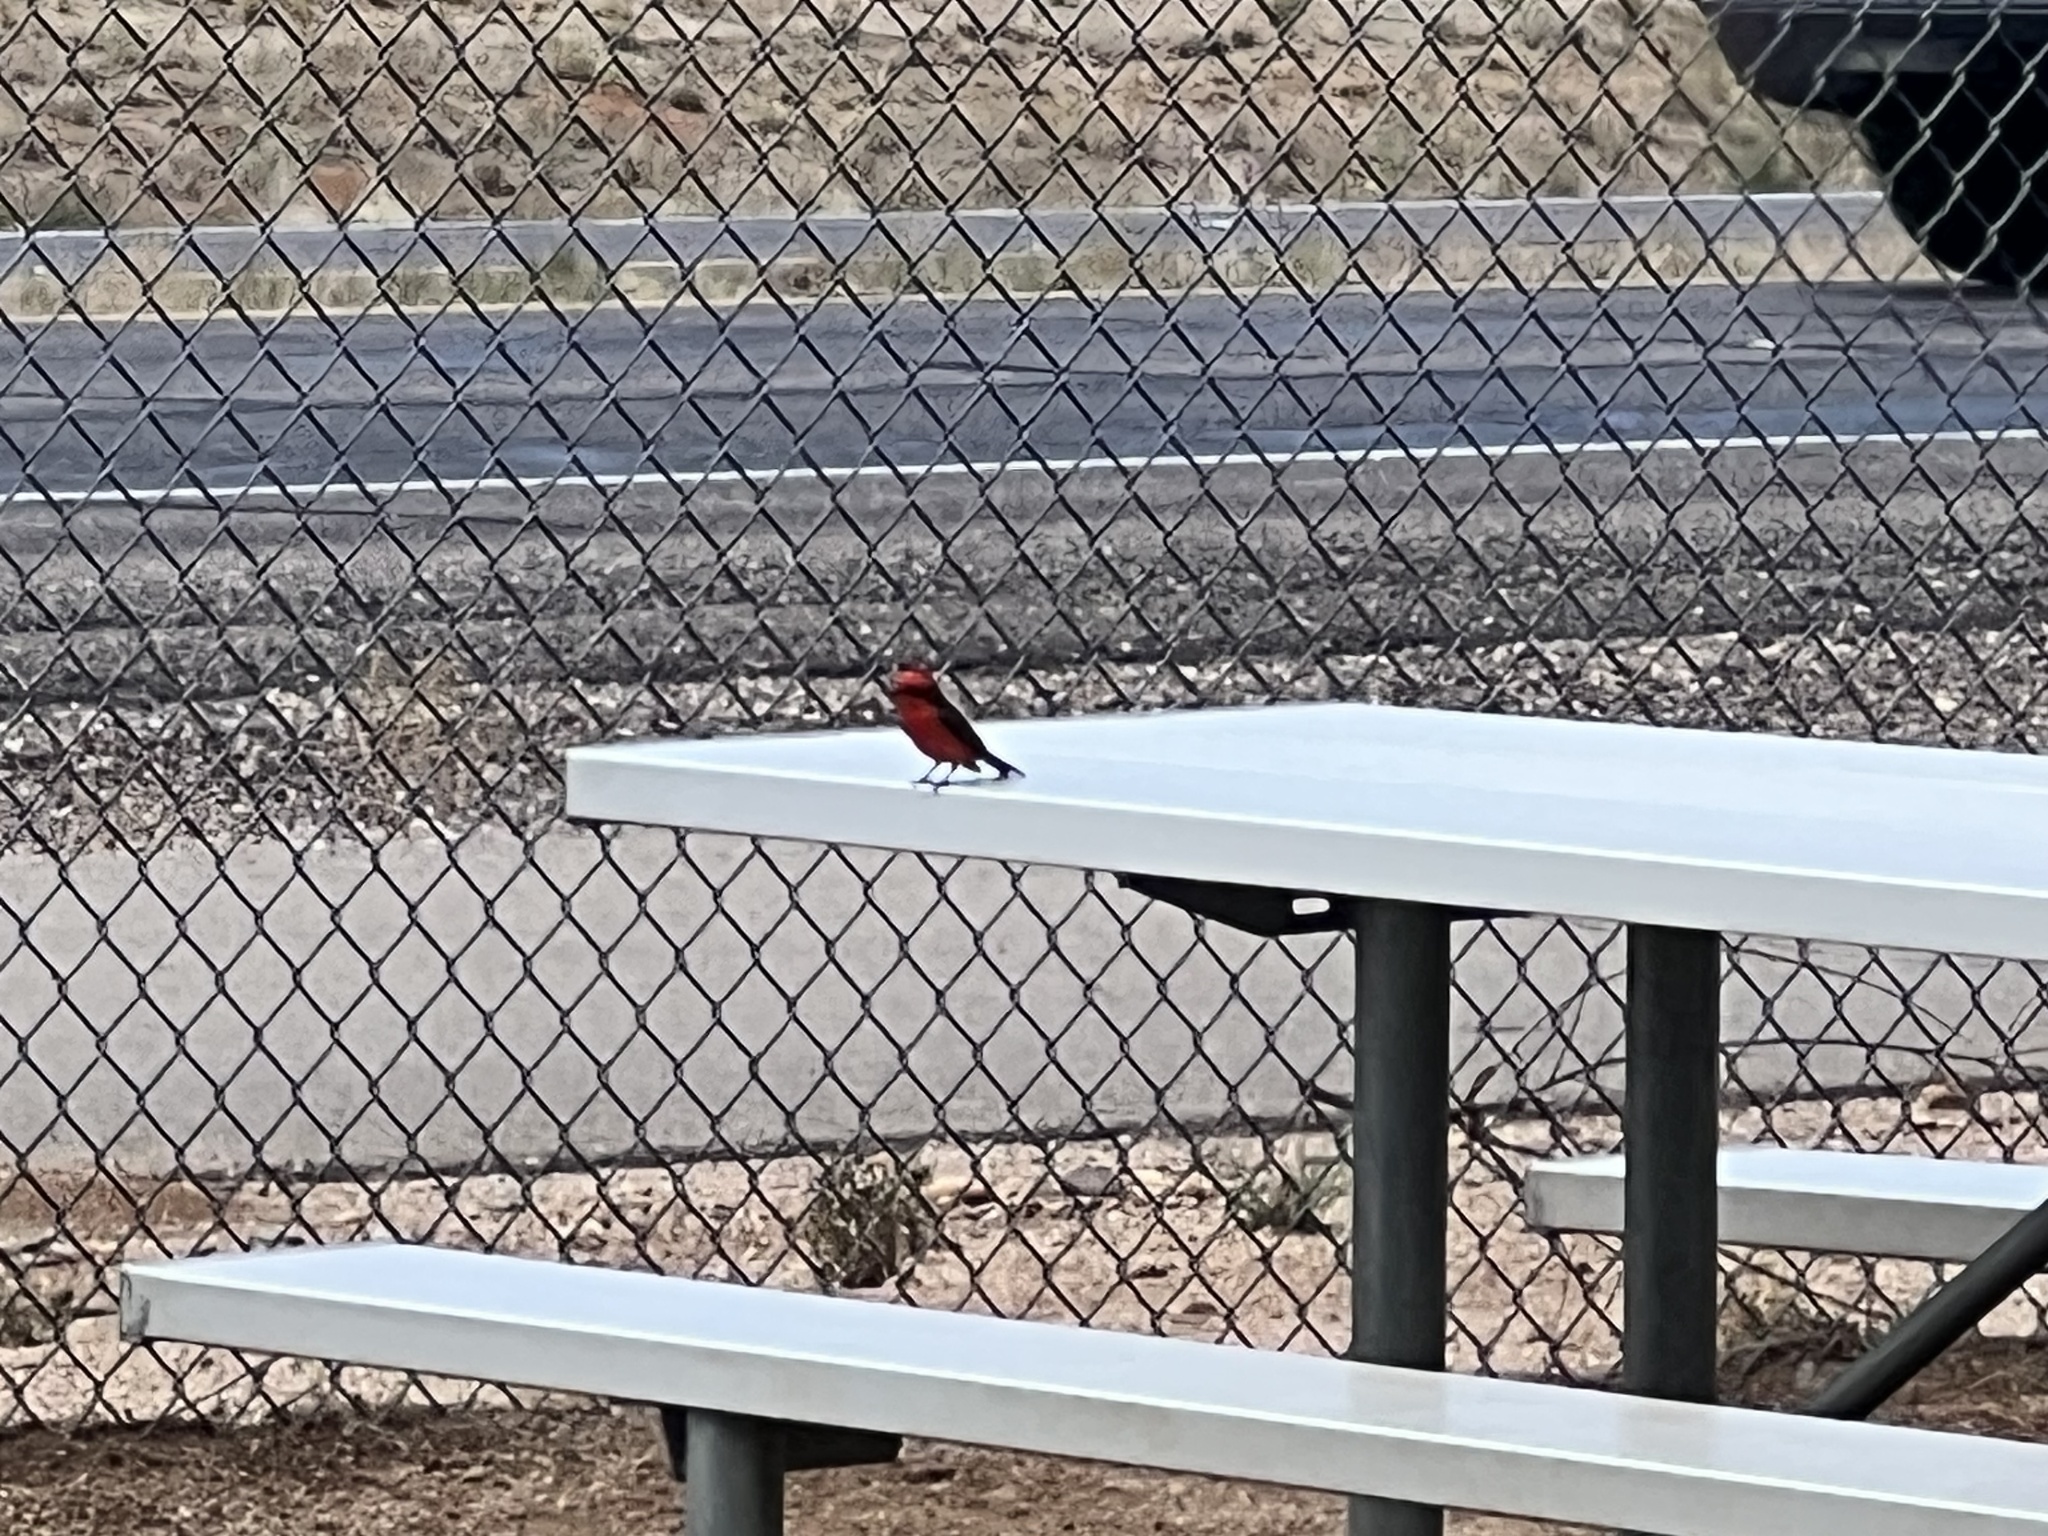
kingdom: Animalia
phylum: Chordata
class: Aves
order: Passeriformes
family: Tyrannidae
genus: Pyrocephalus
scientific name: Pyrocephalus rubinus
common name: Vermilion flycatcher
